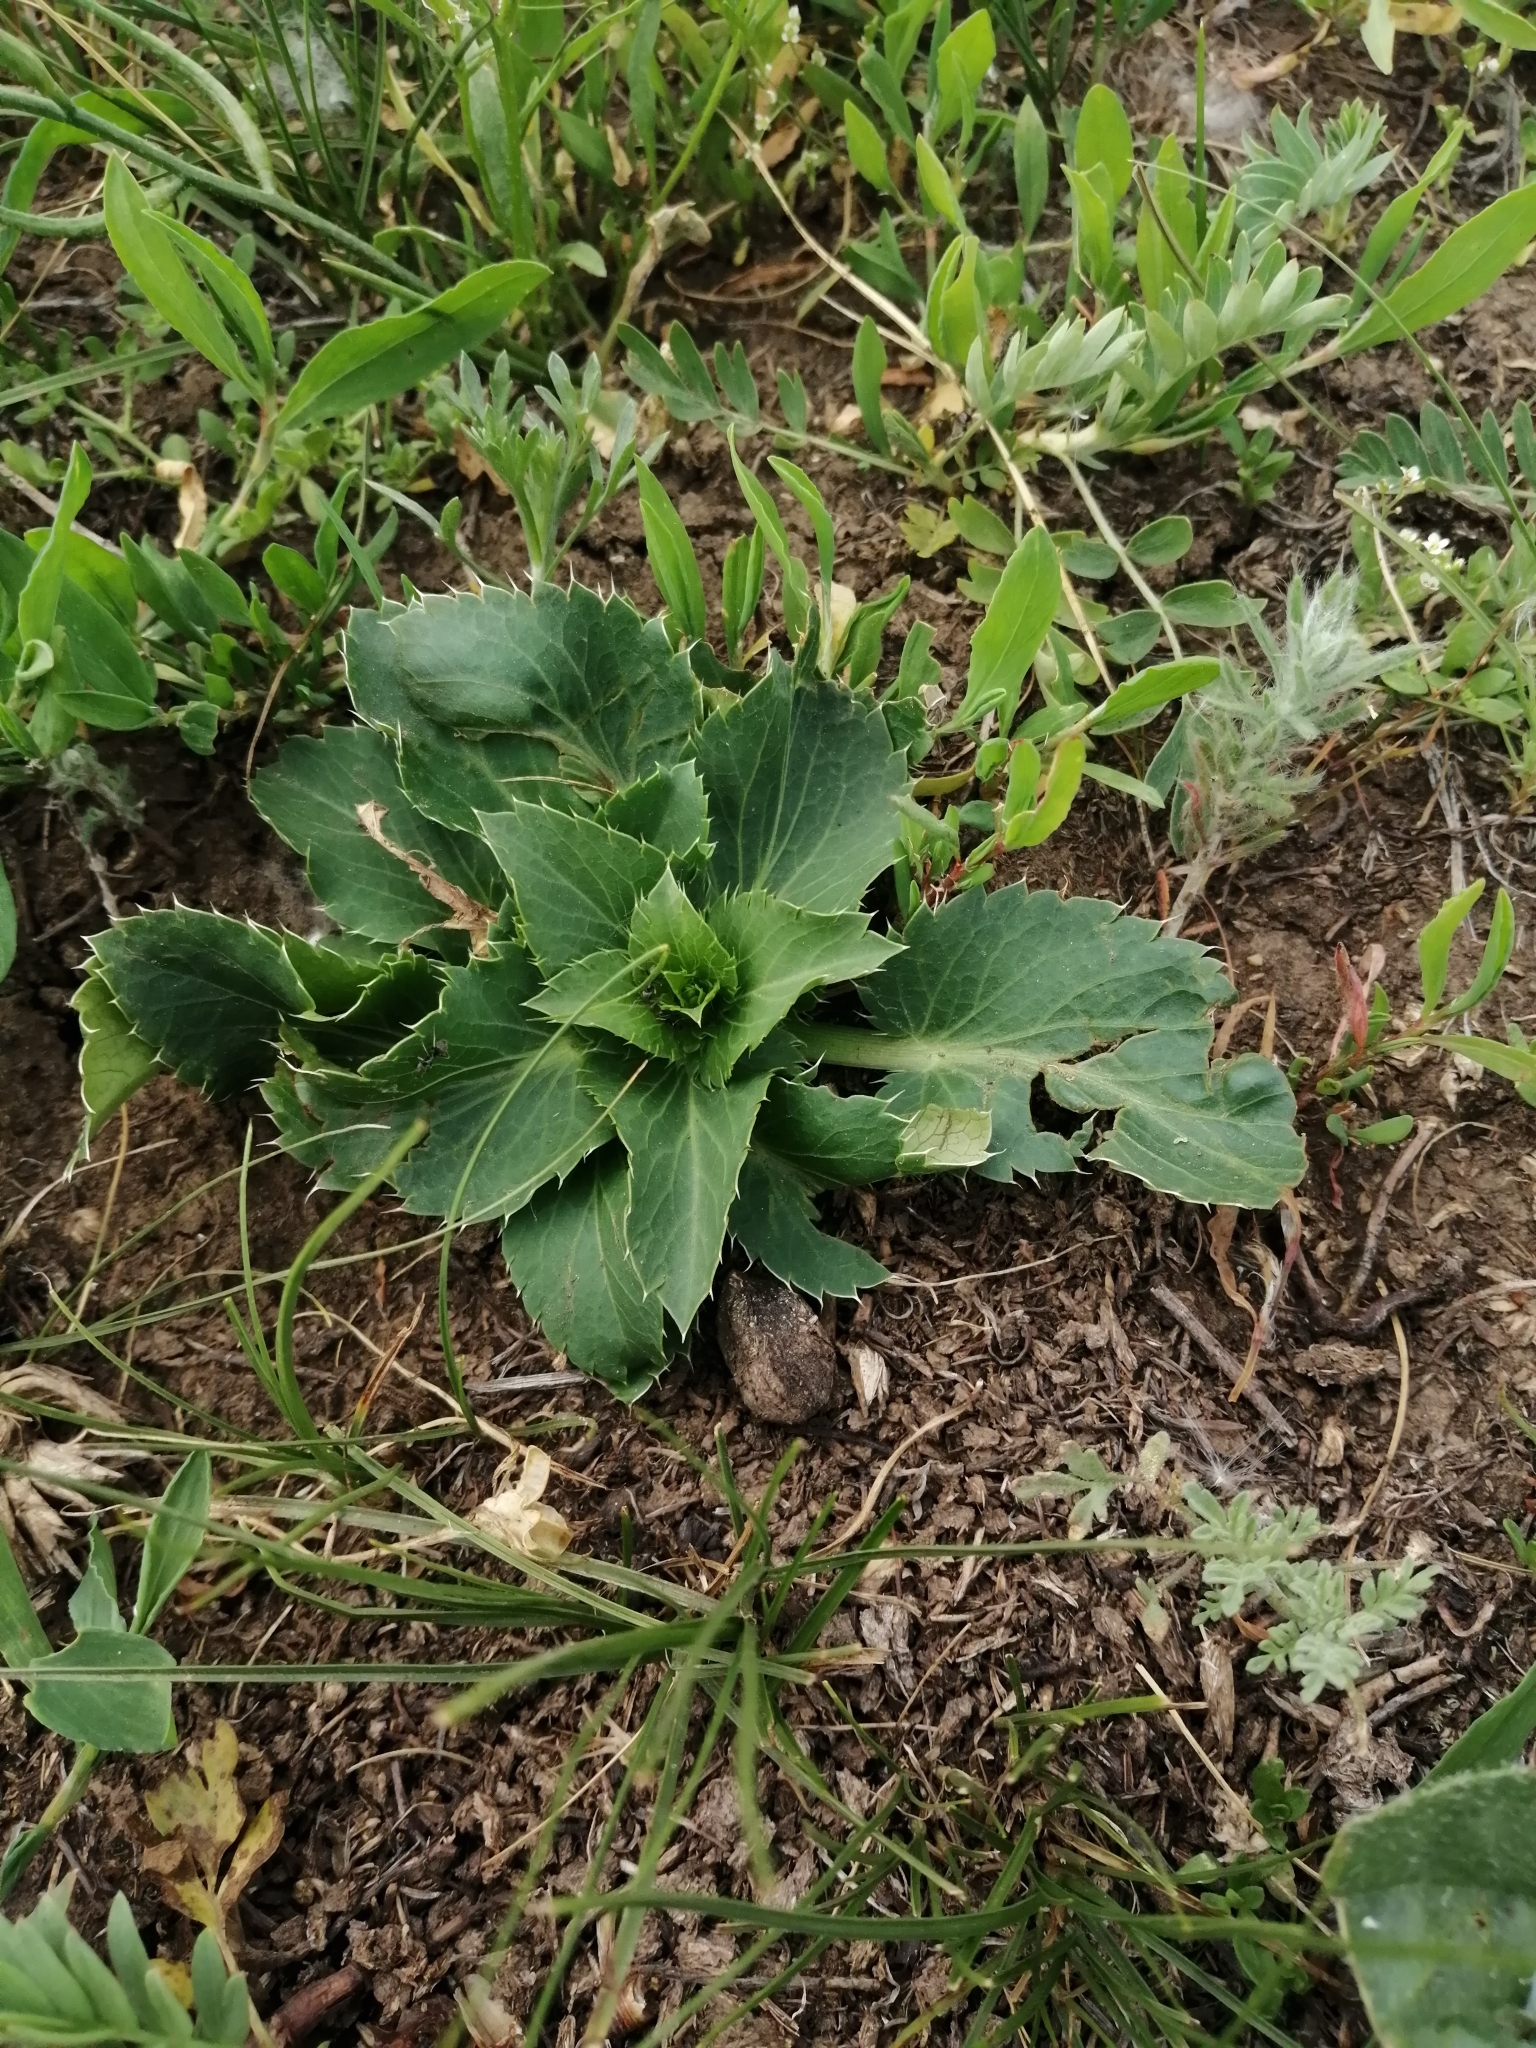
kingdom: Plantae
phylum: Tracheophyta
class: Magnoliopsida
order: Apiales
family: Apiaceae
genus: Eryngium
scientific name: Eryngium planum
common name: Blue eryngo
